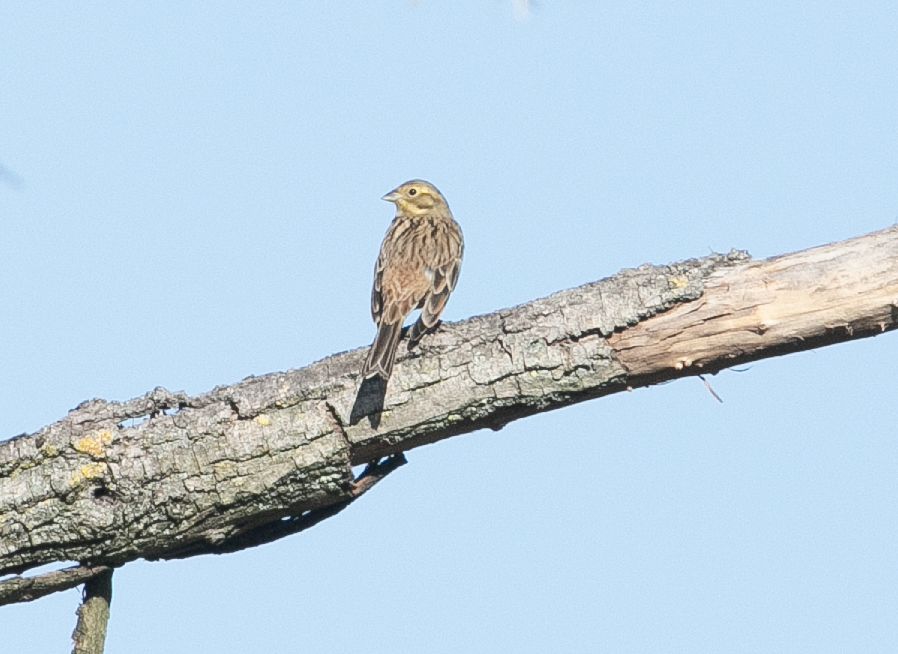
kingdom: Animalia
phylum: Chordata
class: Aves
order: Passeriformes
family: Emberizidae
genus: Emberiza
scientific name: Emberiza citrinella
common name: Yellowhammer
